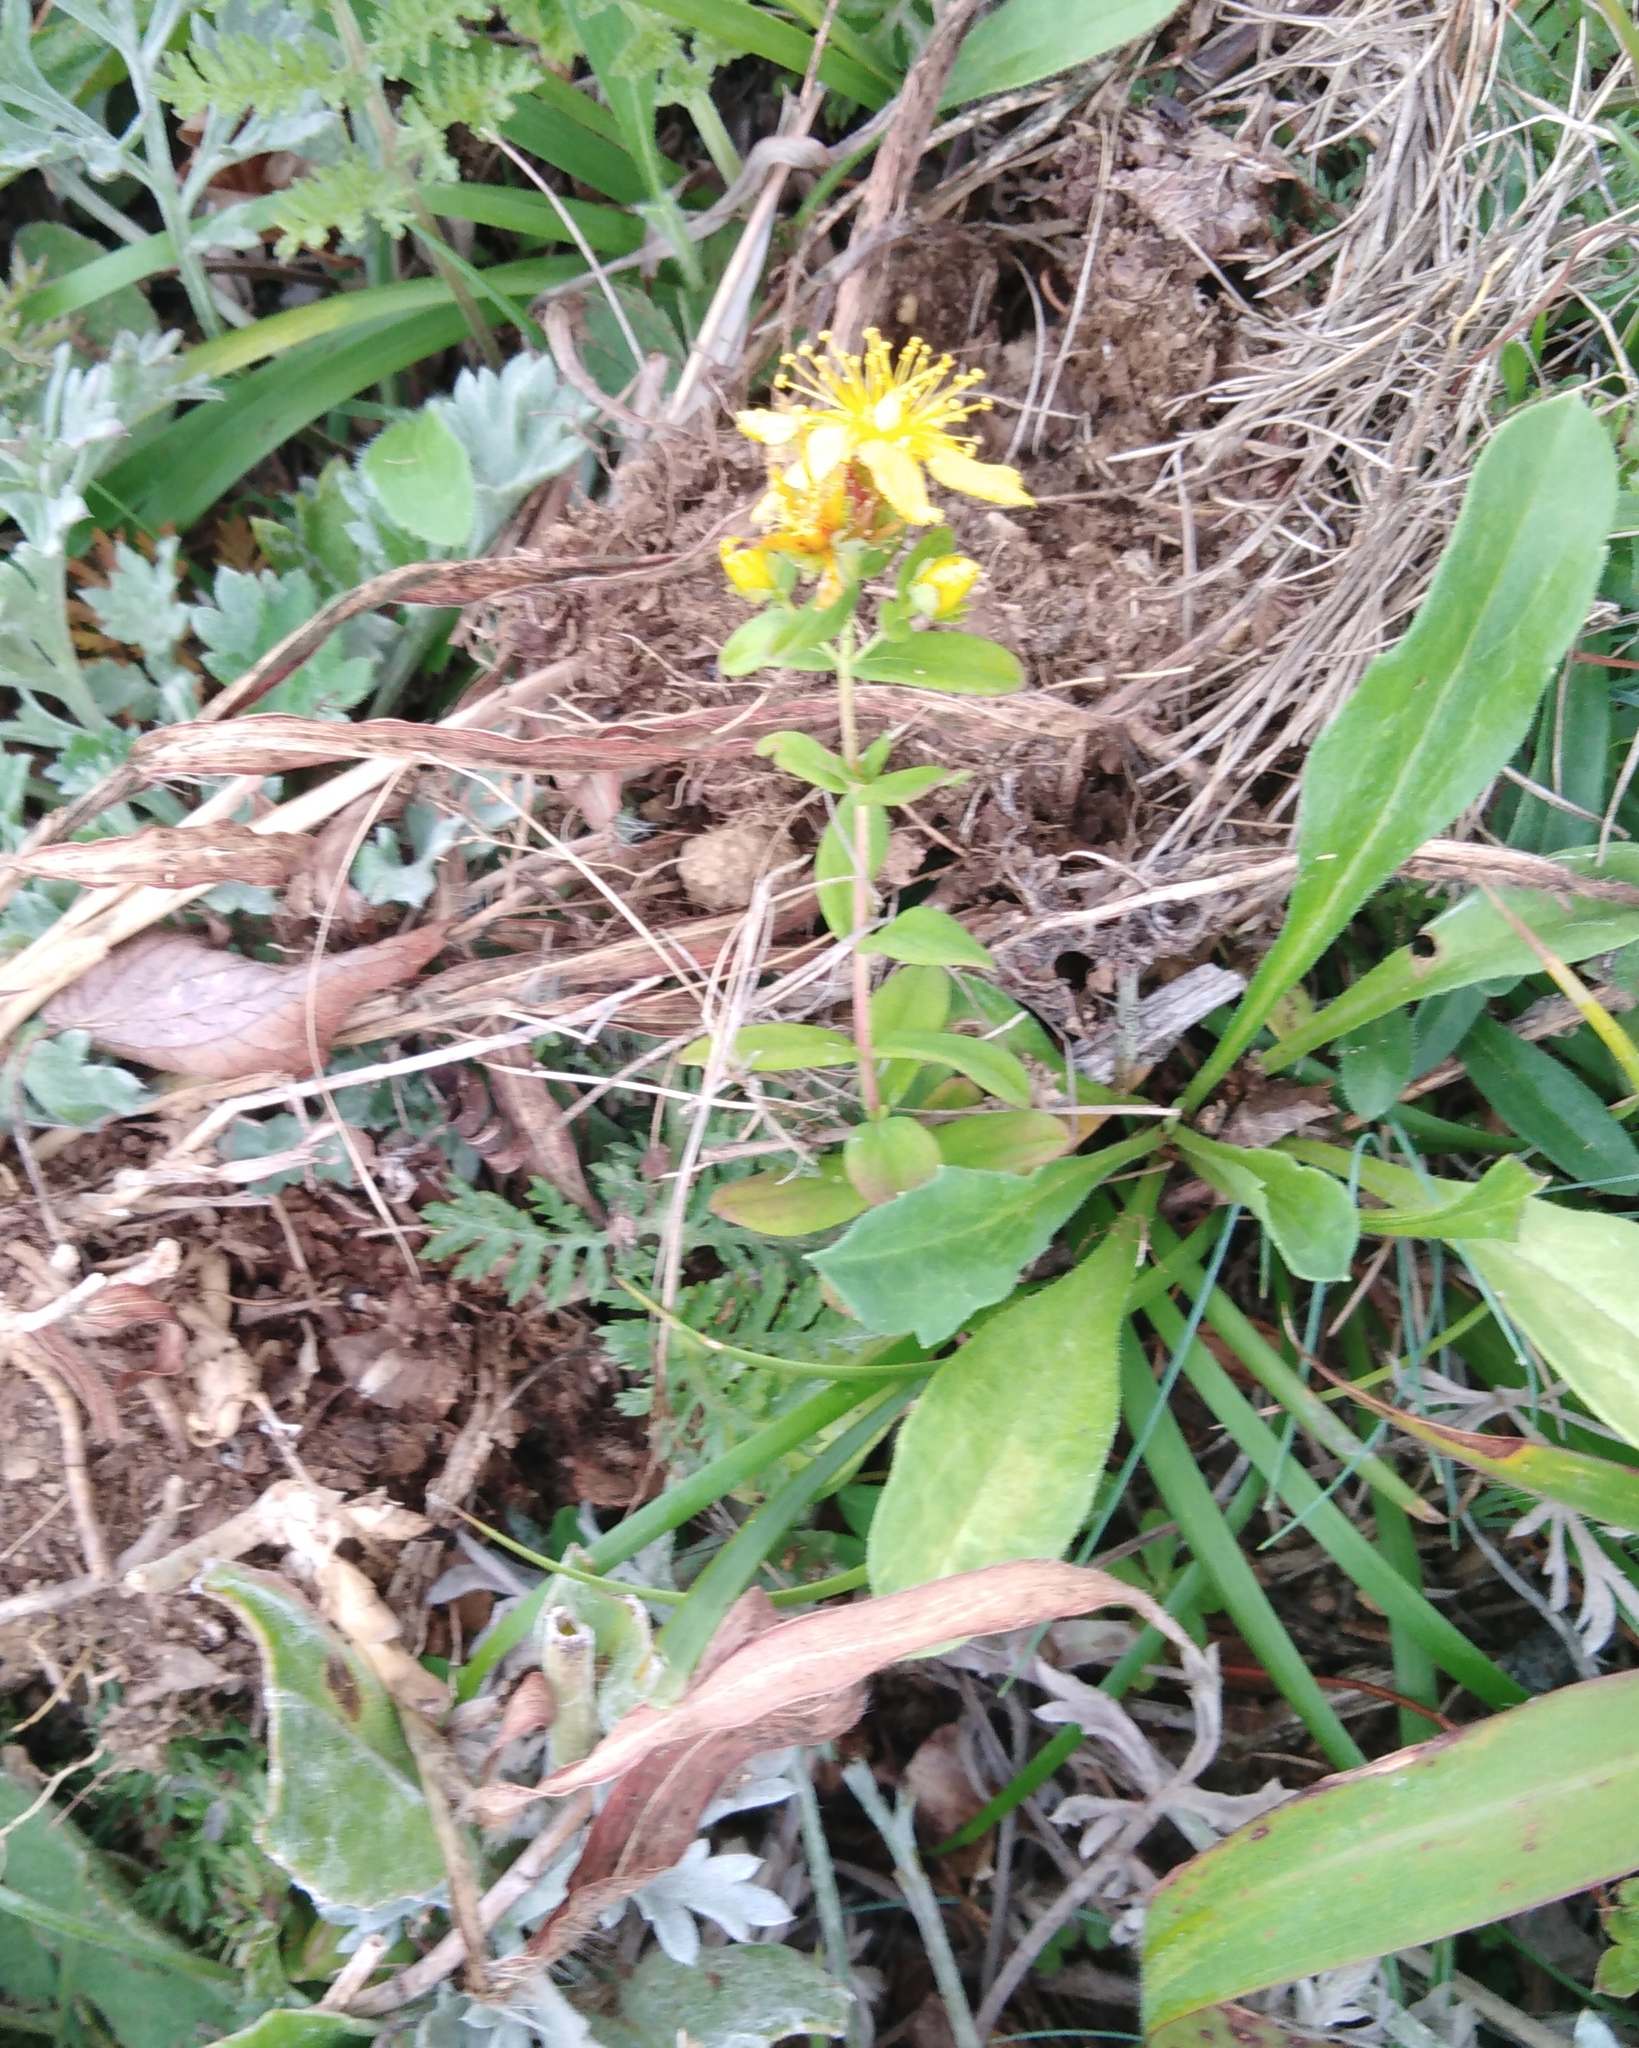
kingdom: Plantae
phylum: Tracheophyta
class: Magnoliopsida
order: Malpighiales
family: Hypericaceae
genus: Hypericum
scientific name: Hypericum attenuatum
